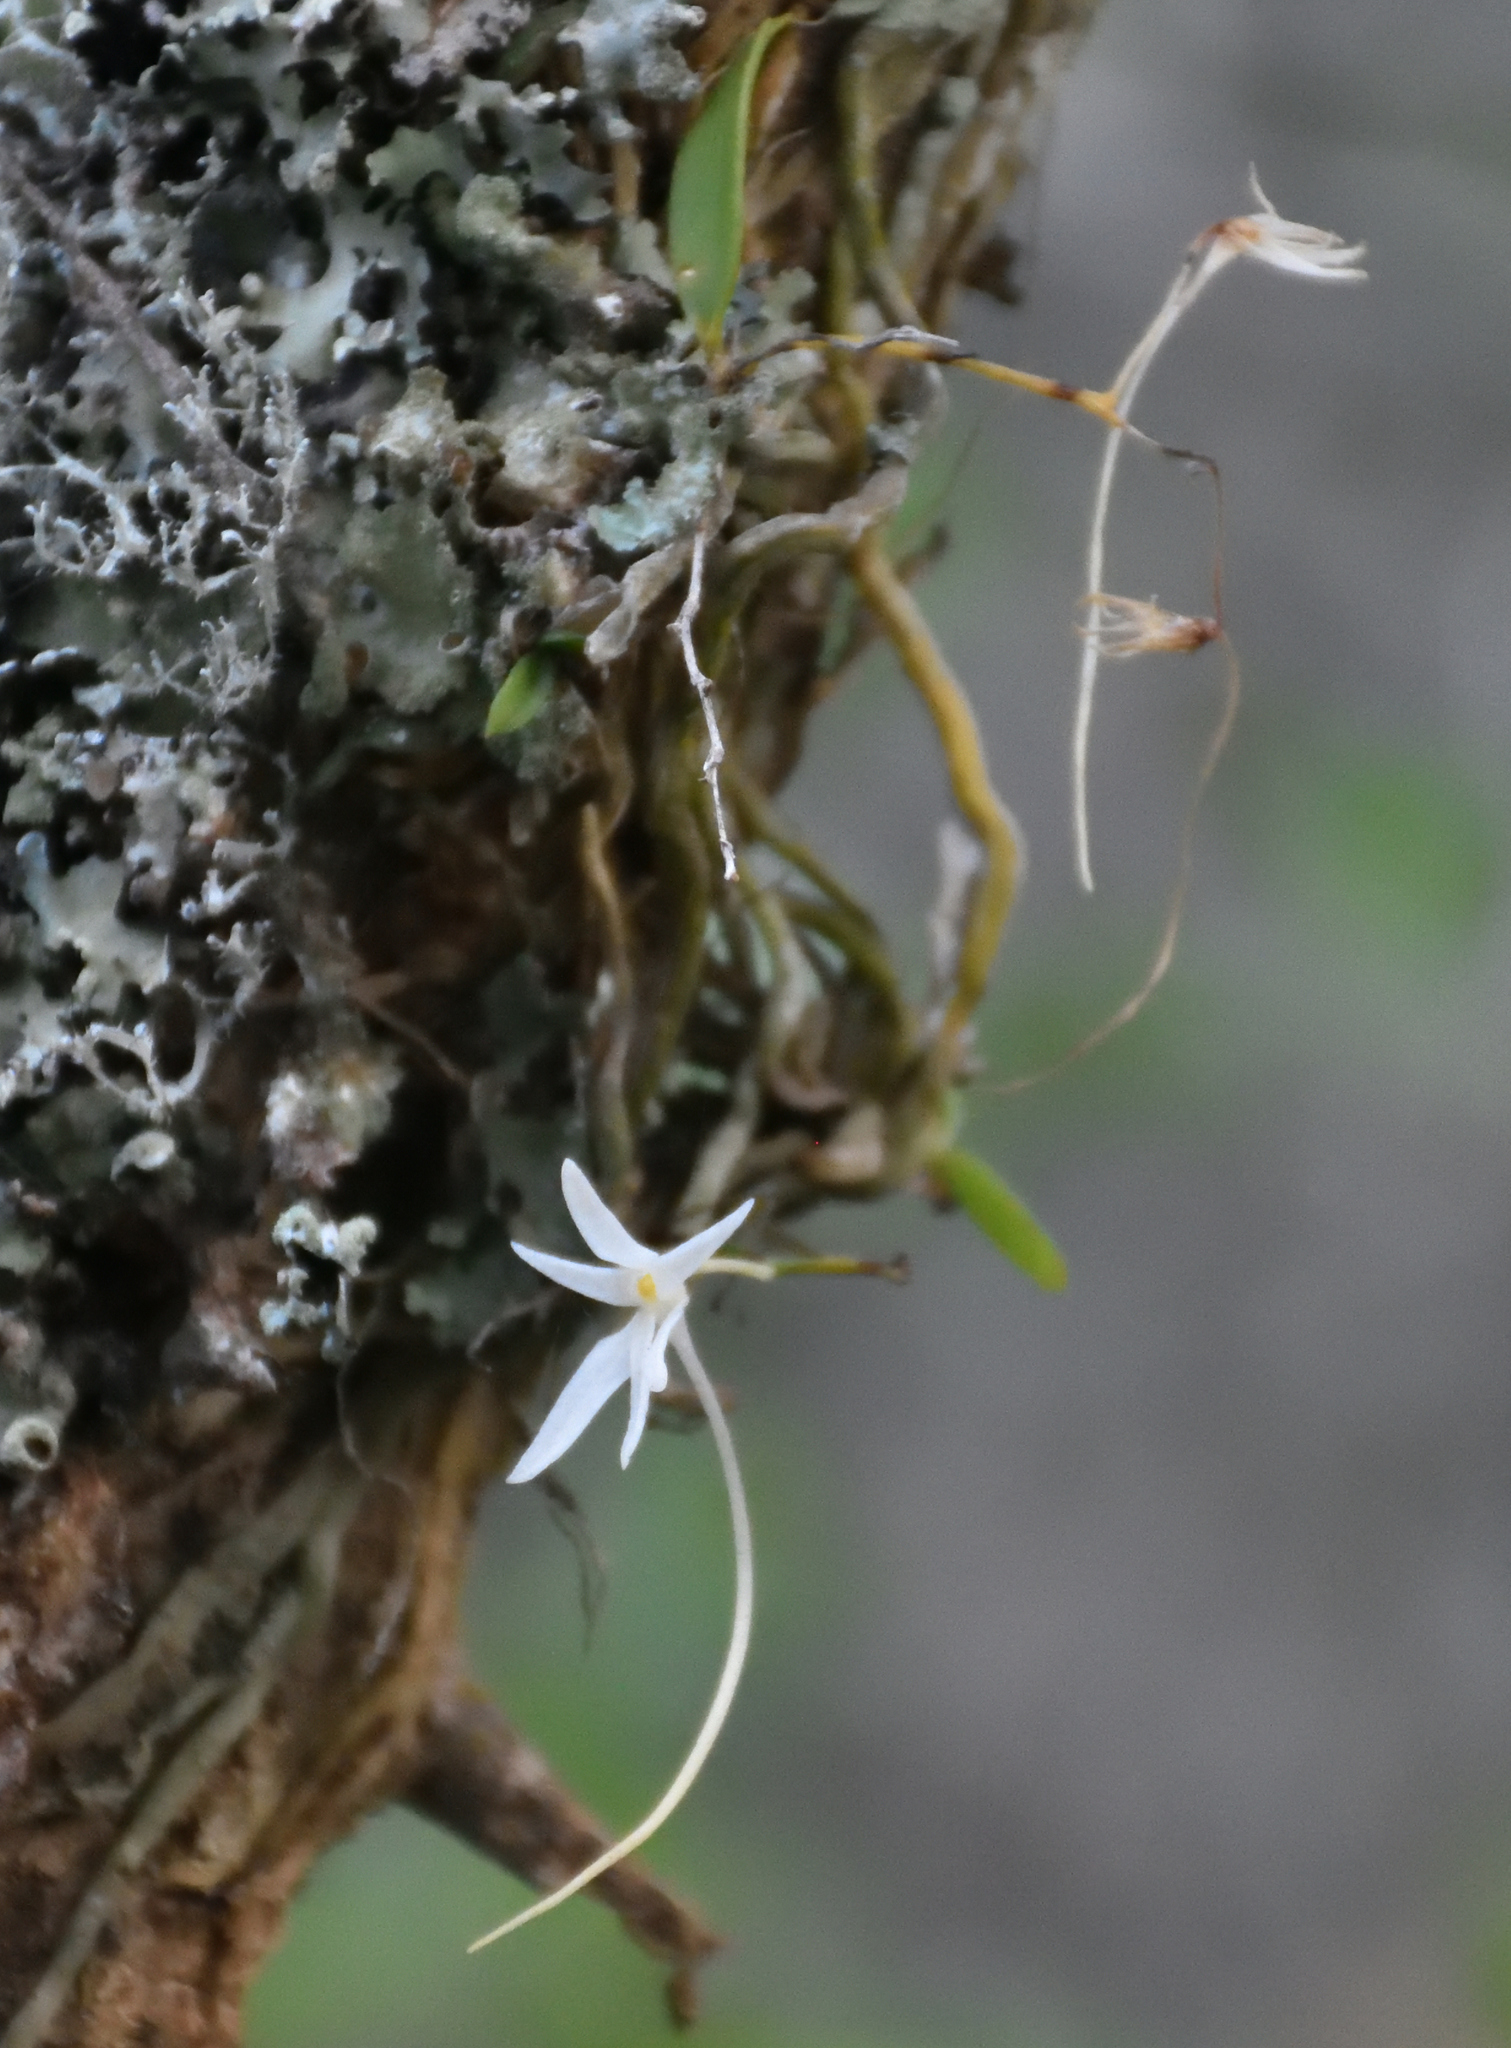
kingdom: Plantae
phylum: Tracheophyta
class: Liliopsida
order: Asparagales
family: Orchidaceae
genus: Mystacidium
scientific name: Mystacidium venosum
